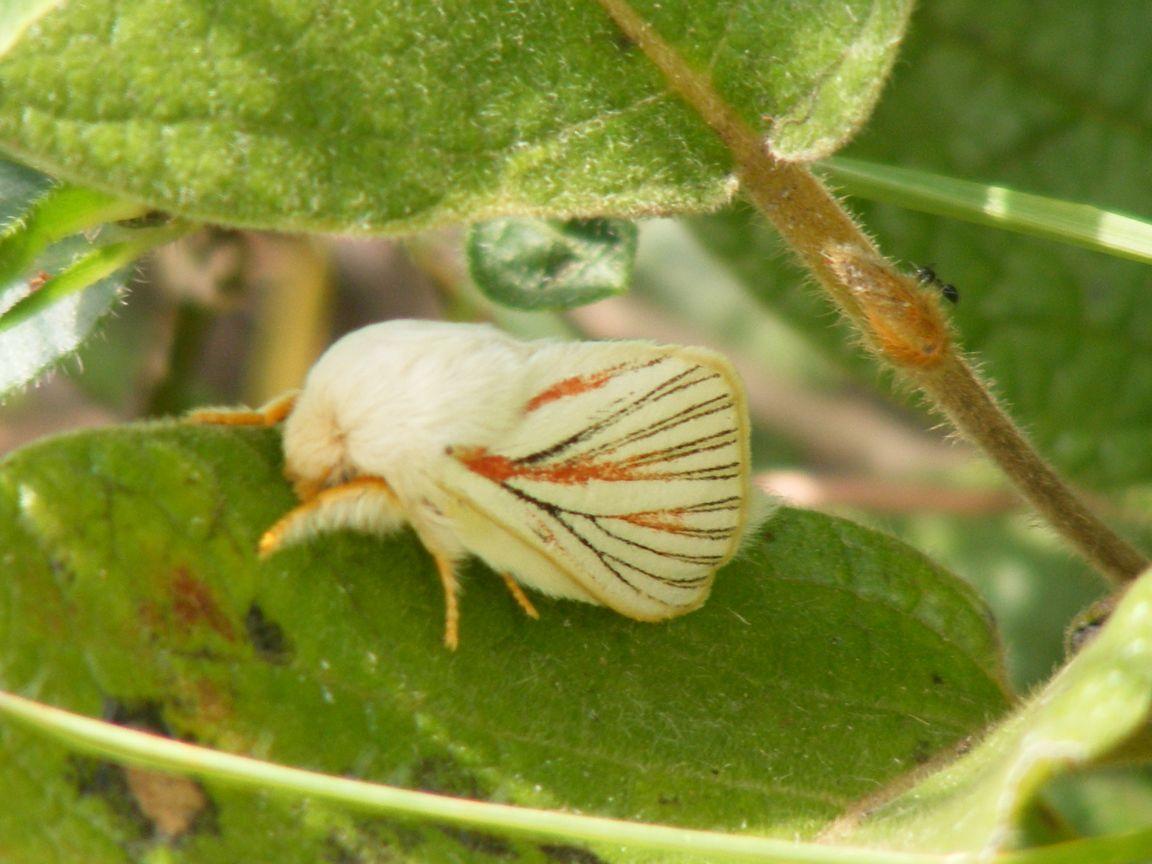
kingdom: Animalia
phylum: Arthropoda
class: Insecta
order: Lepidoptera
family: Lasiocampidae
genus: Grammodora
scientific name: Grammodora nigrolineata
